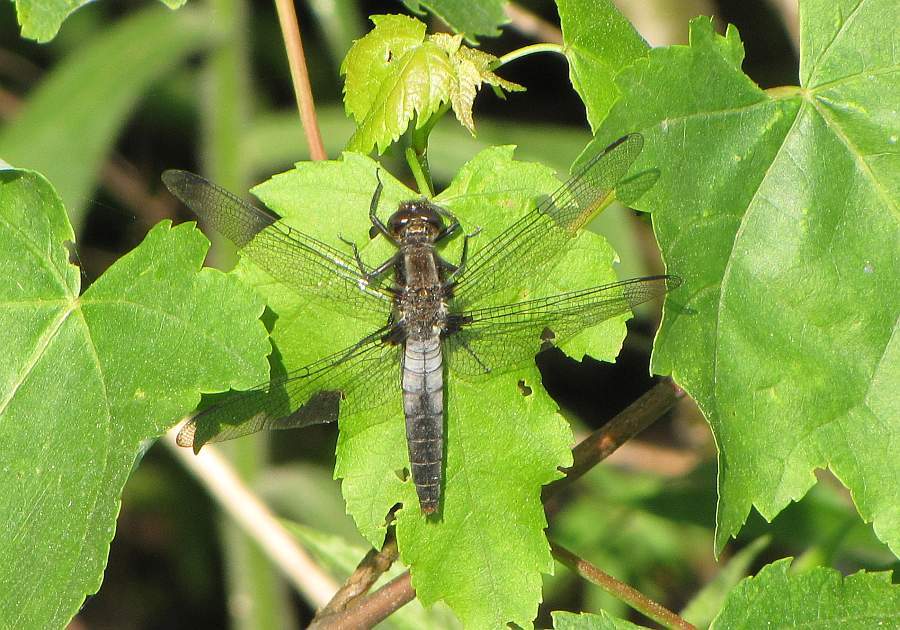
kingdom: Animalia
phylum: Arthropoda
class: Insecta
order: Odonata
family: Libellulidae
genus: Ladona
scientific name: Ladona julia
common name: Chalk-fronted corporal
